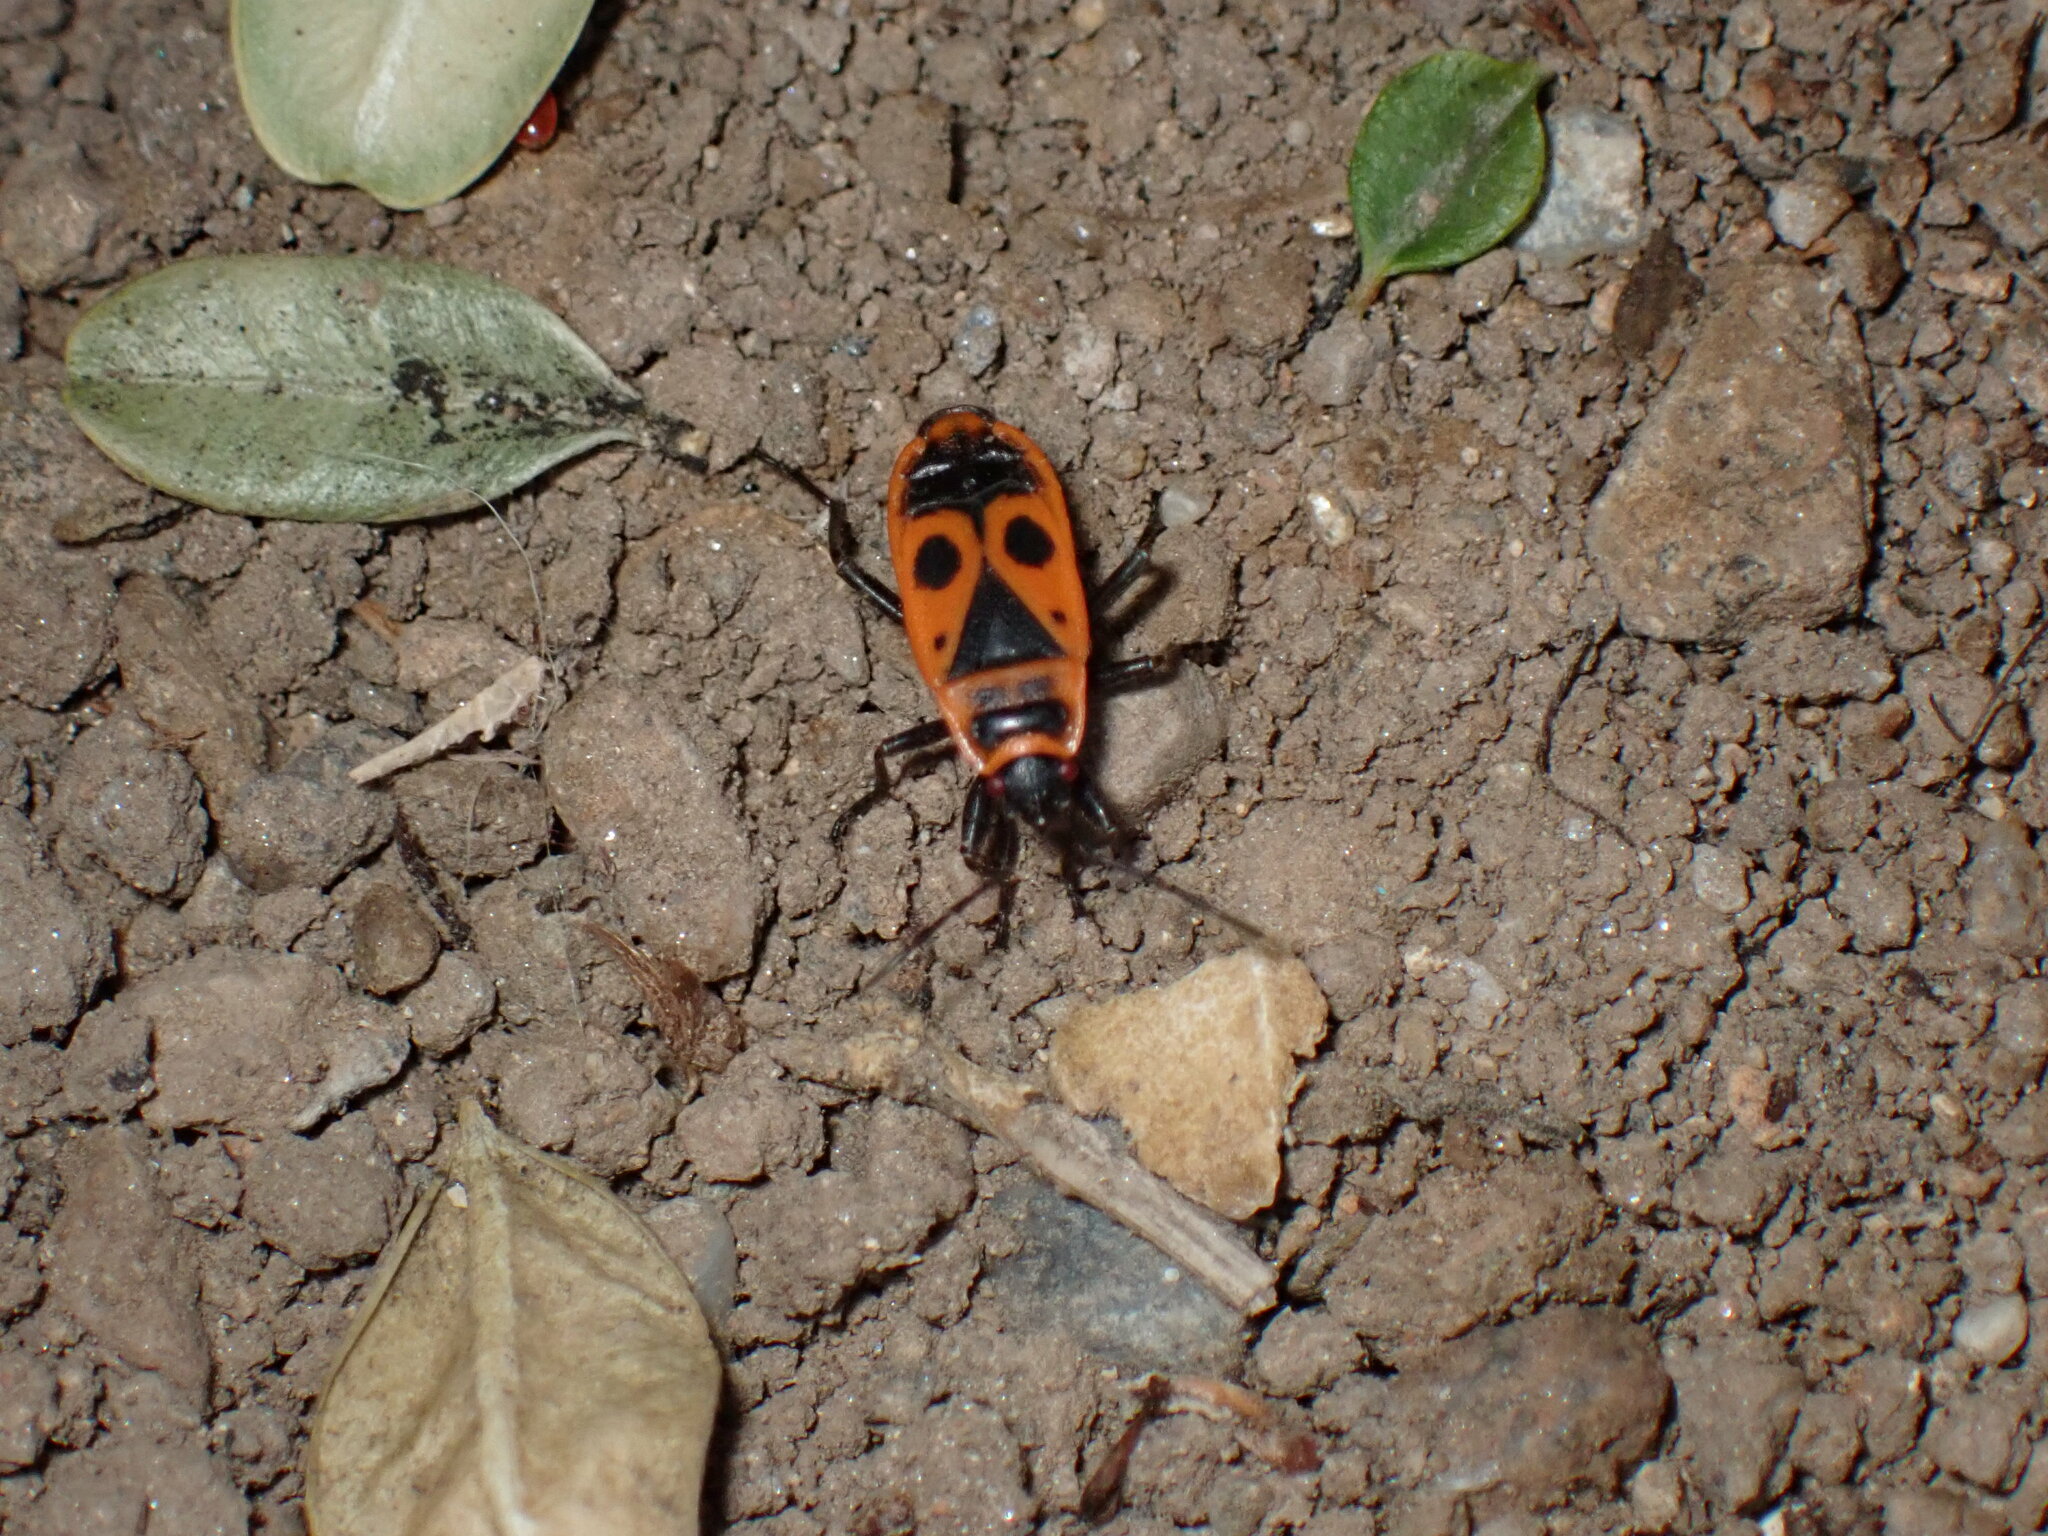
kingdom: Animalia
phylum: Arthropoda
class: Insecta
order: Hemiptera
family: Pyrrhocoridae
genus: Pyrrhocoris
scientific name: Pyrrhocoris apterus
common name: Firebug
